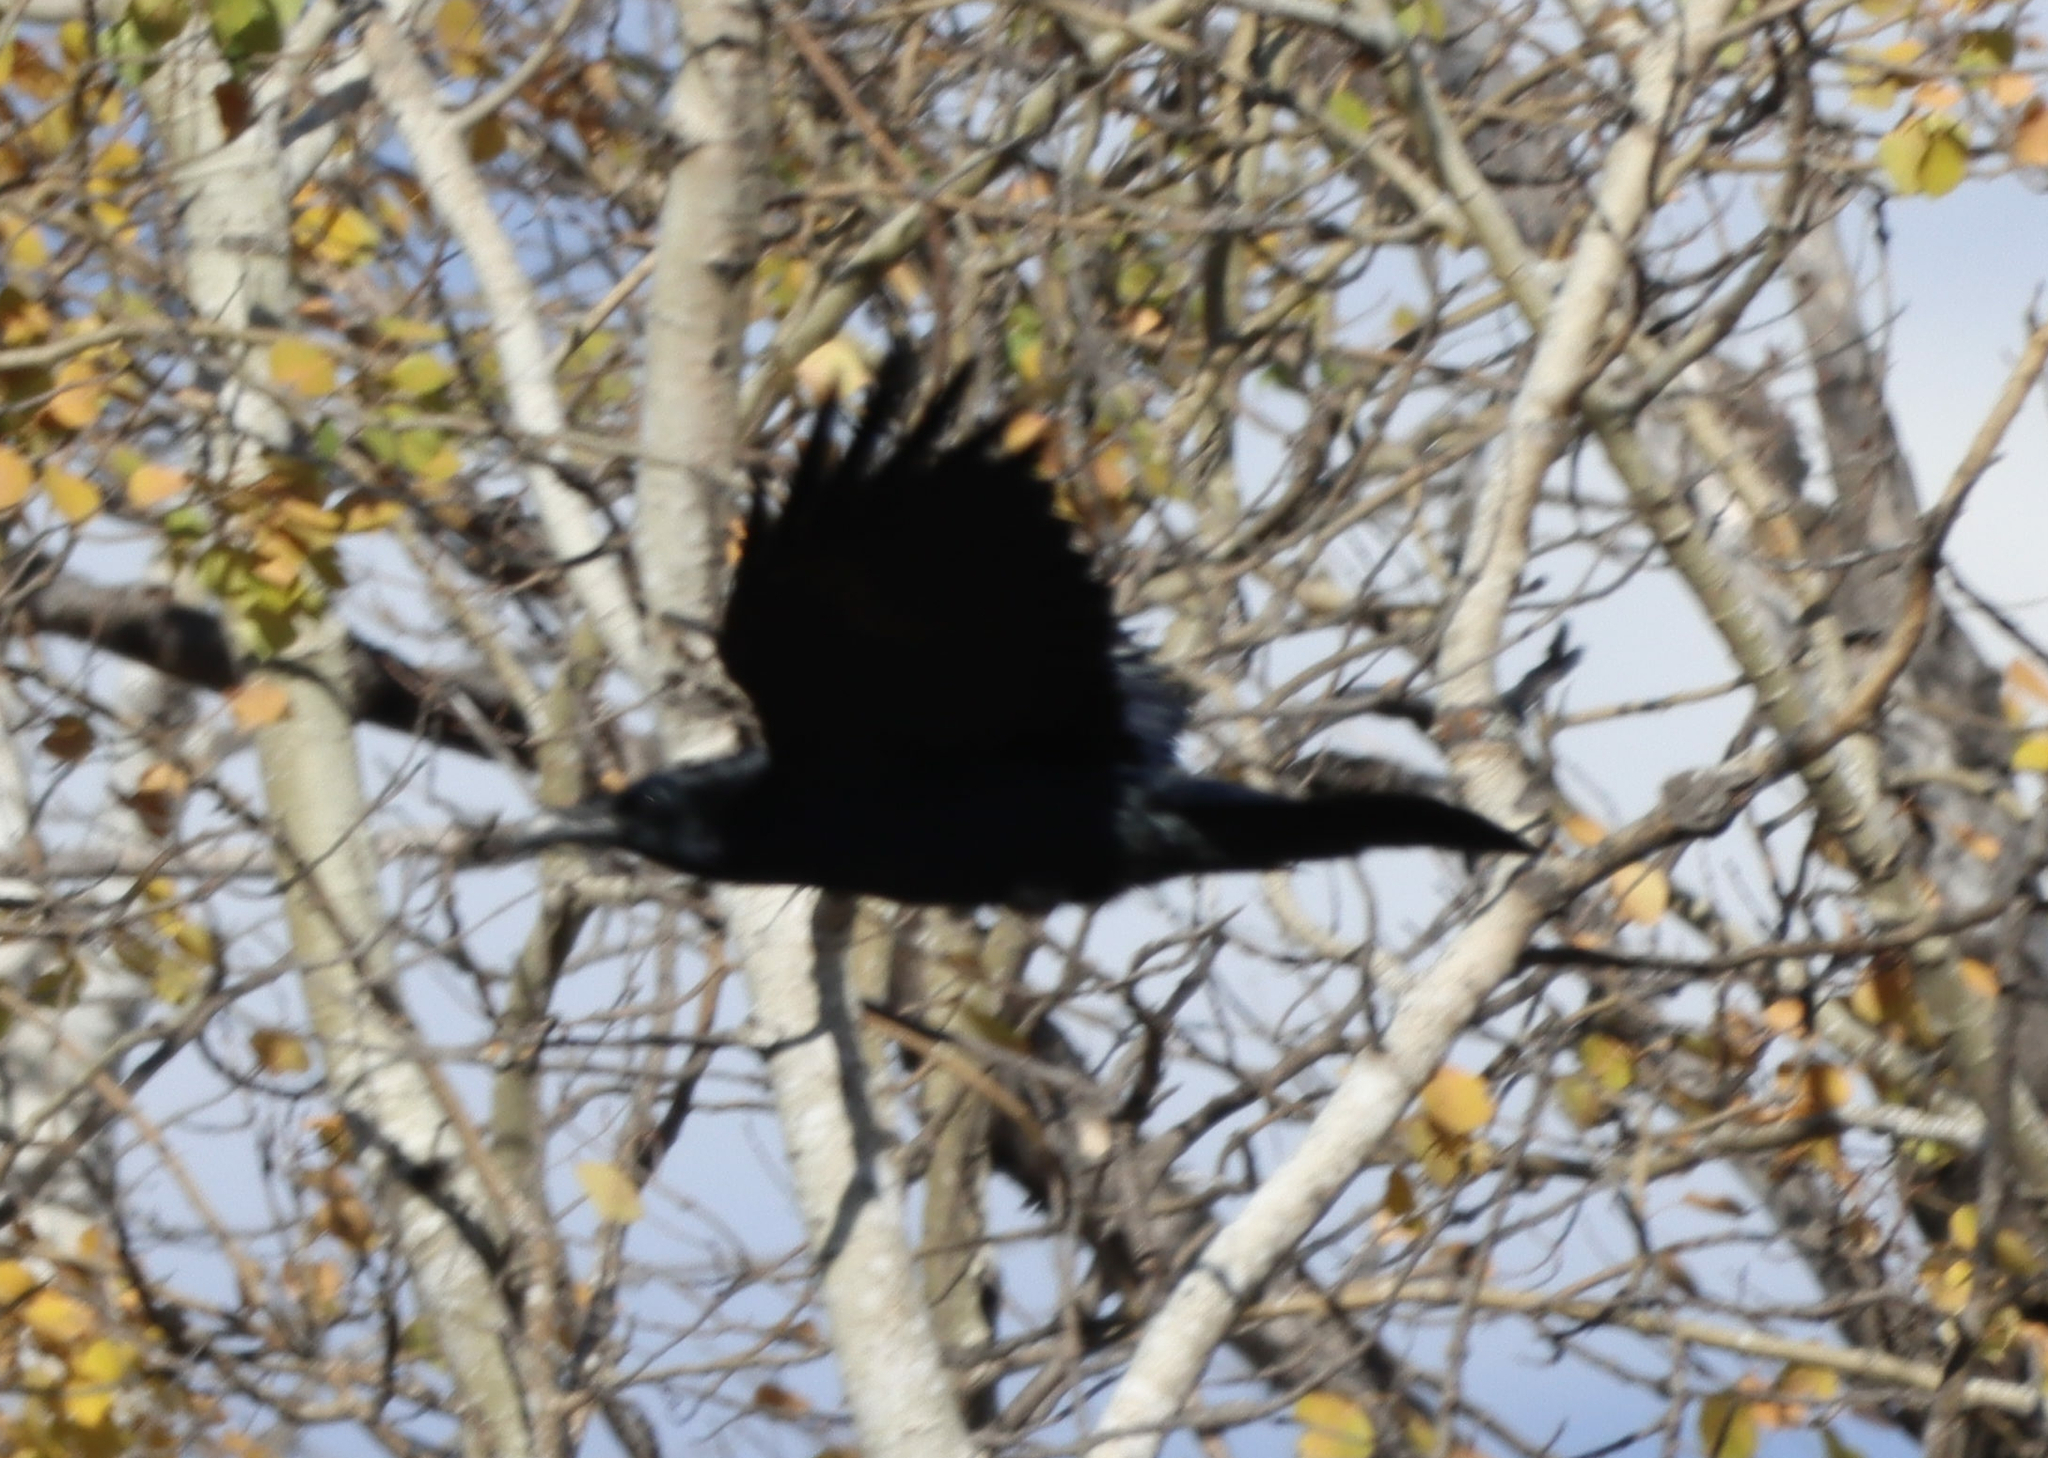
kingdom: Animalia
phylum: Chordata
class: Aves
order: Passeriformes
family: Corvidae
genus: Corvus
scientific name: Corvus corax
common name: Common raven
